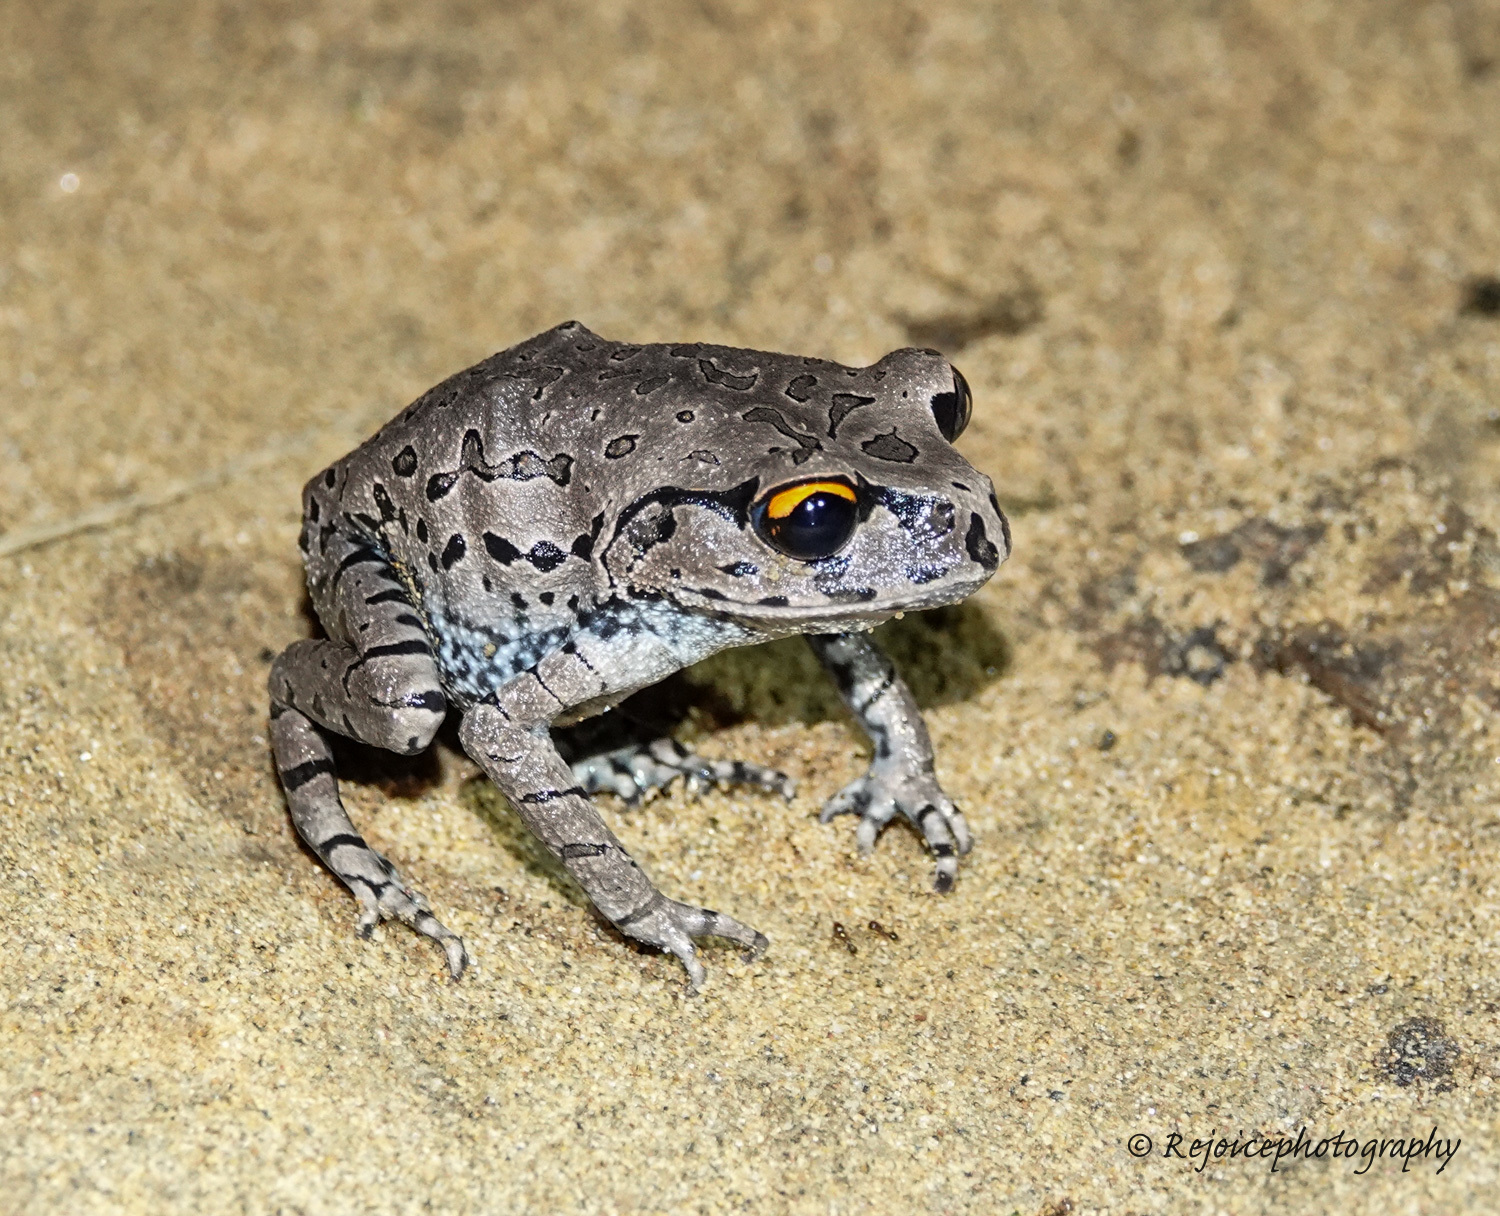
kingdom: Animalia
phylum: Chordata
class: Amphibia
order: Anura
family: Megophryidae
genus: Leptobrachium
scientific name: Leptobrachium rakhinense
